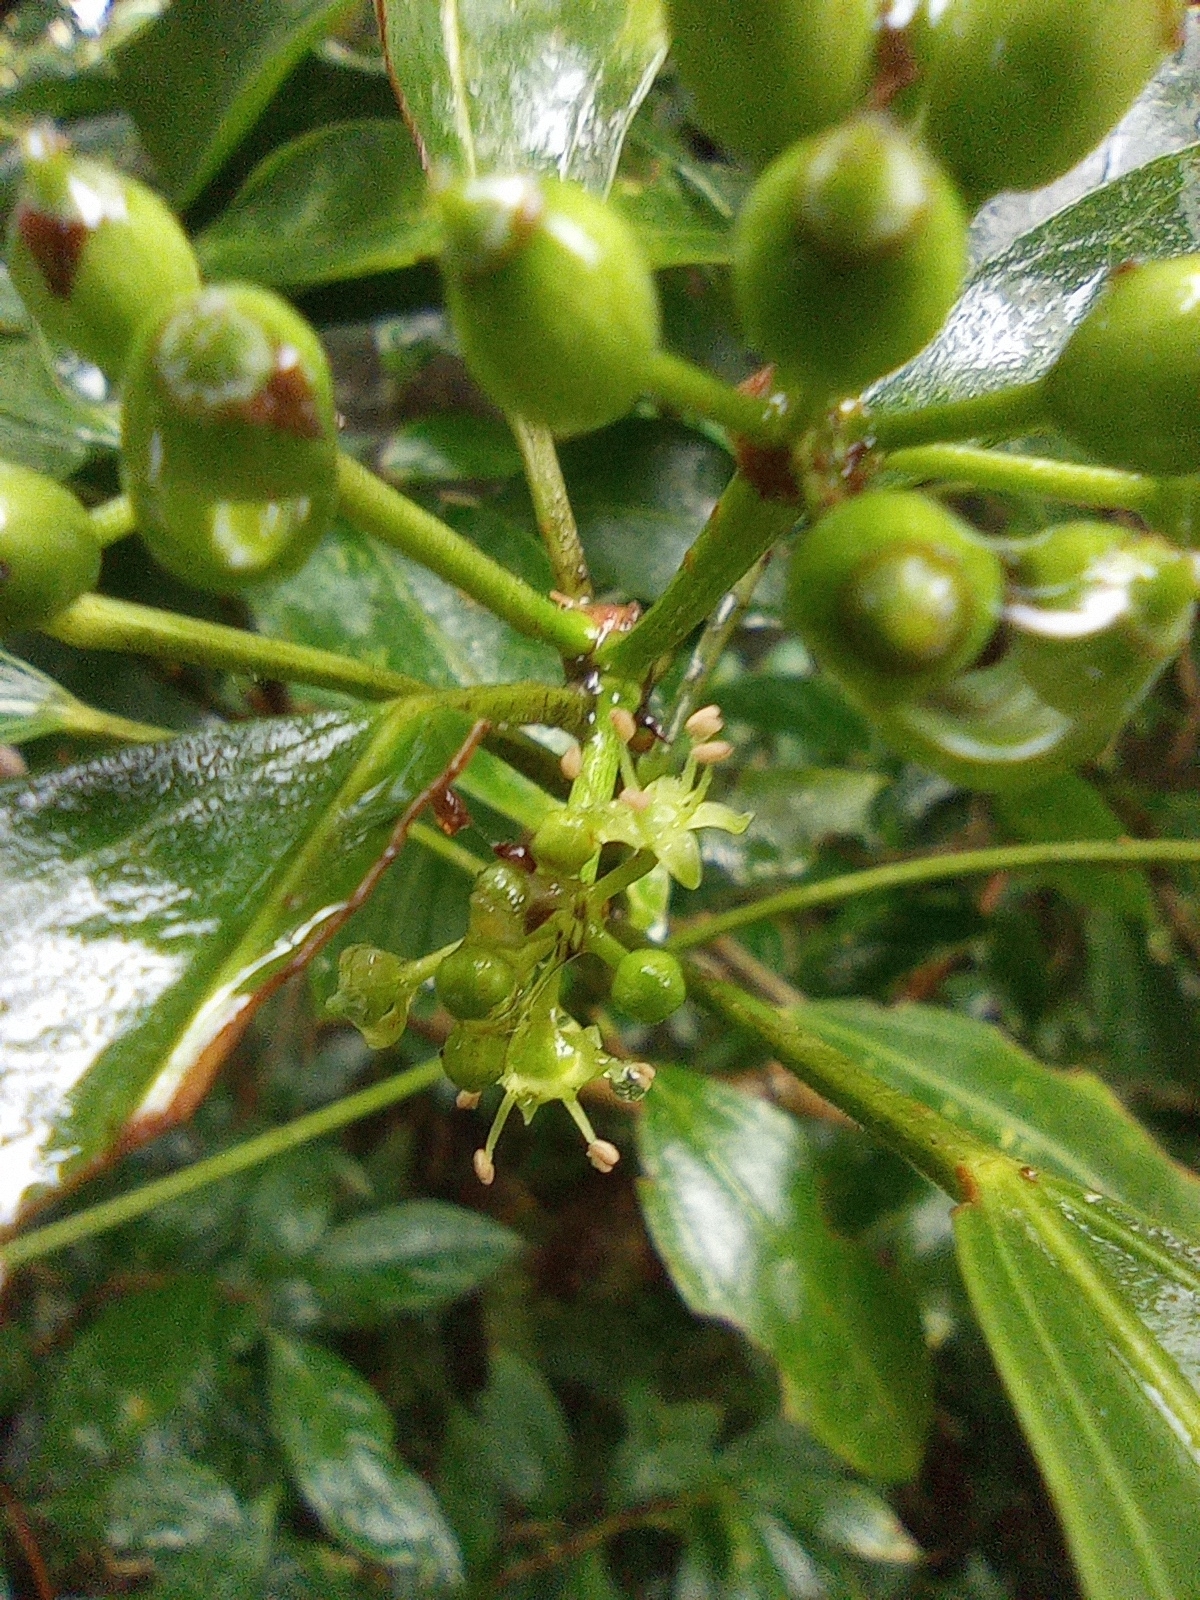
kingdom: Plantae
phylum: Tracheophyta
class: Magnoliopsida
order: Apiales
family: Araliaceae
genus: Dendropanax
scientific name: Dendropanax dentiger
